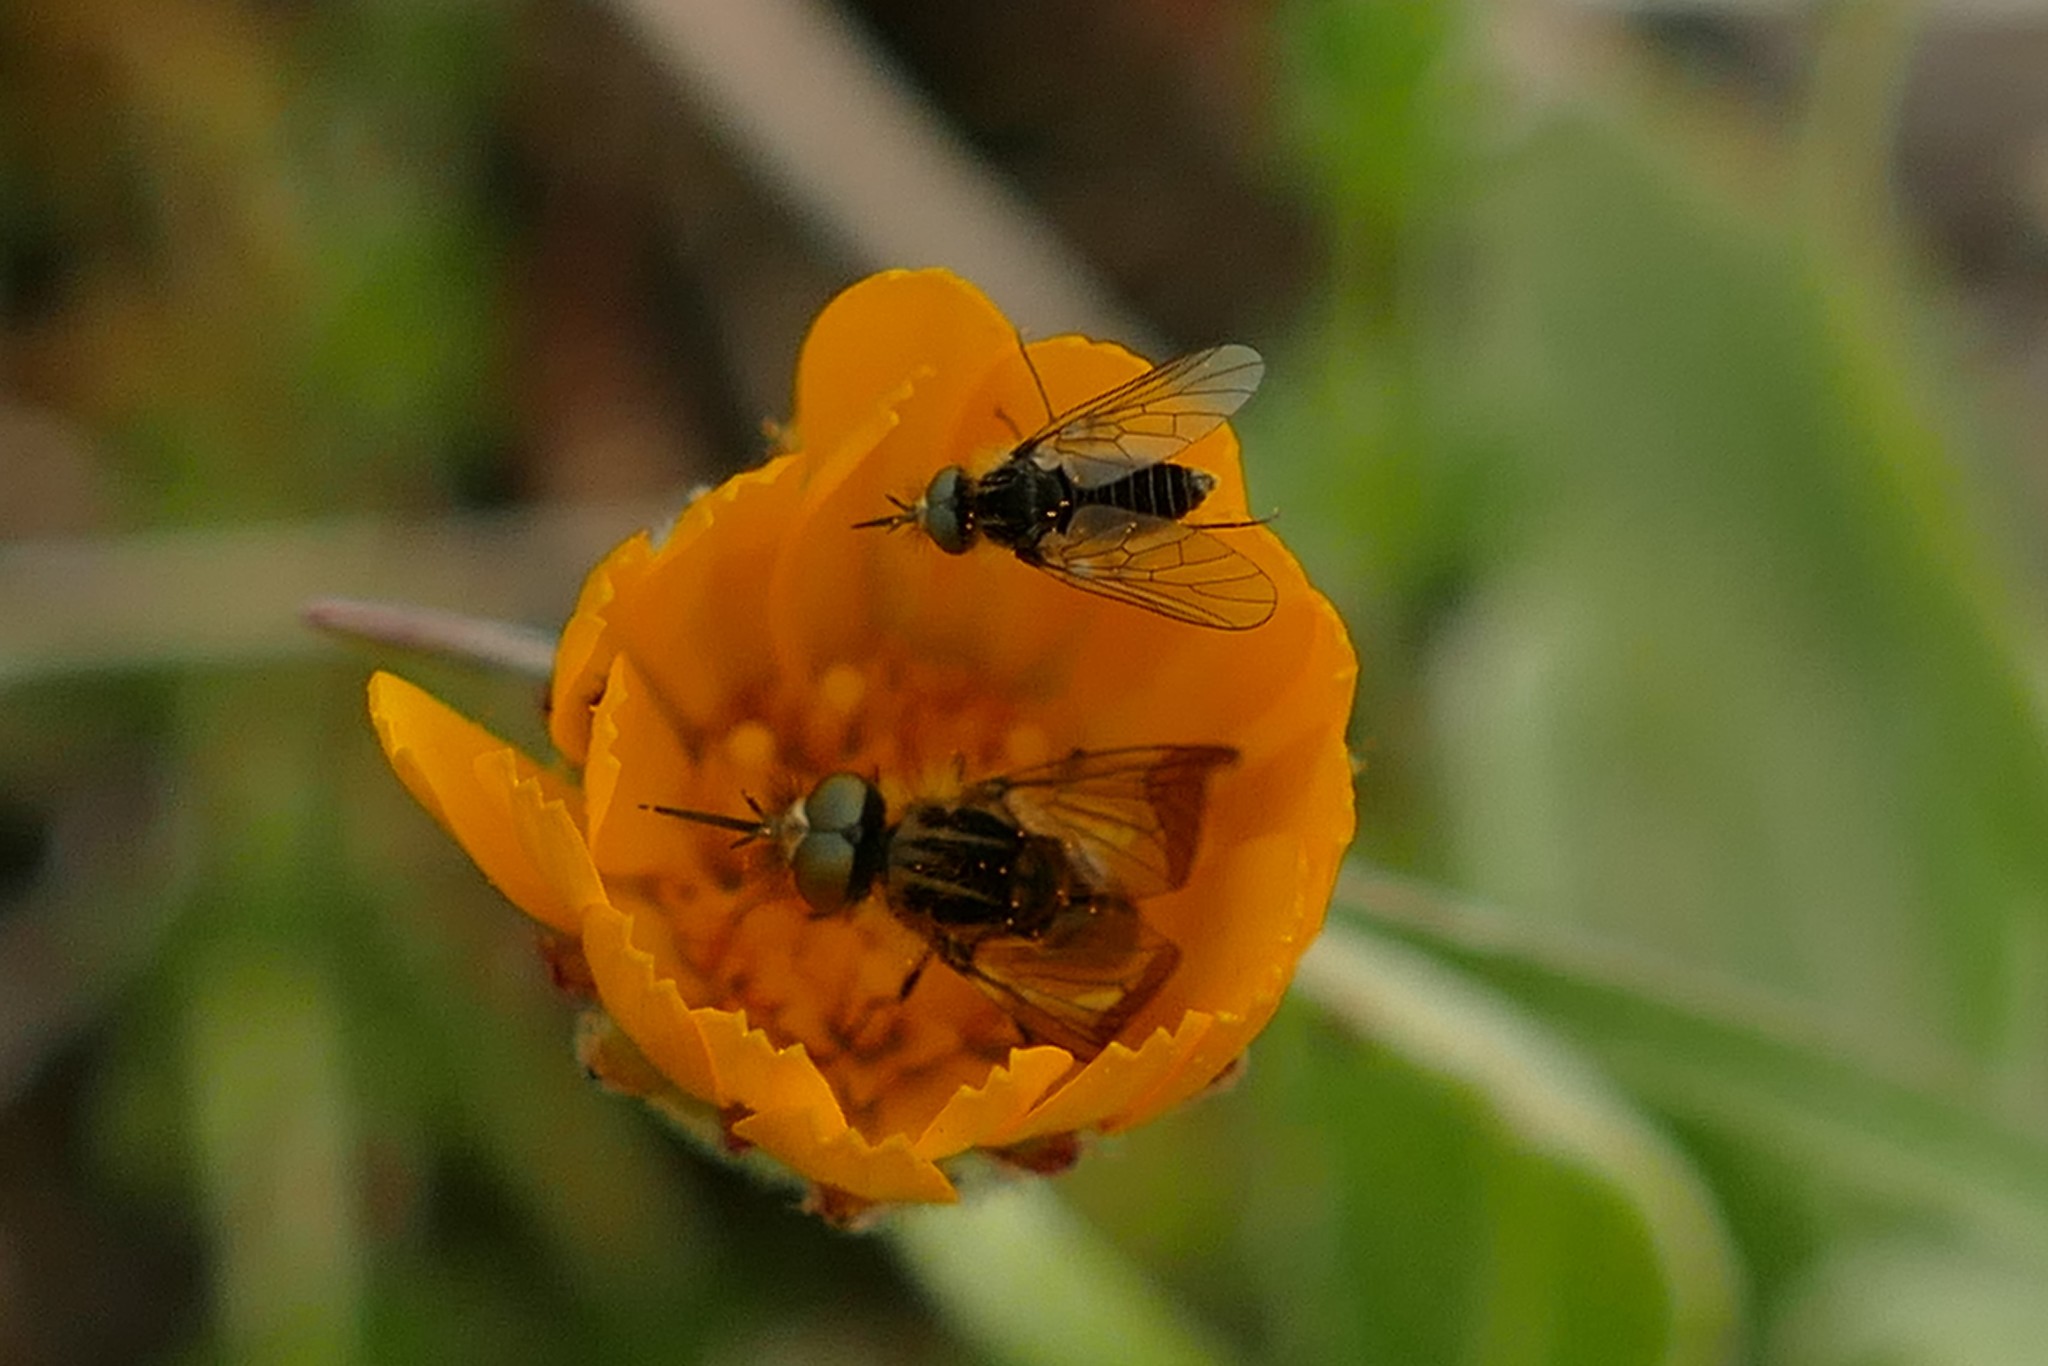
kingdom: Animalia
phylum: Arthropoda
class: Insecta
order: Diptera
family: Bombyliidae
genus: Protypusia
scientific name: Protypusia grata
